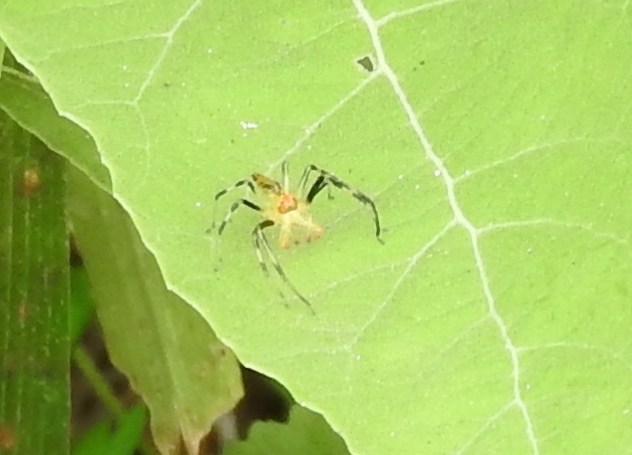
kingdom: Animalia
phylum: Arthropoda
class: Arachnida
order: Araneae
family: Salticidae
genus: Lyssomanes
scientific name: Lyssomanes
